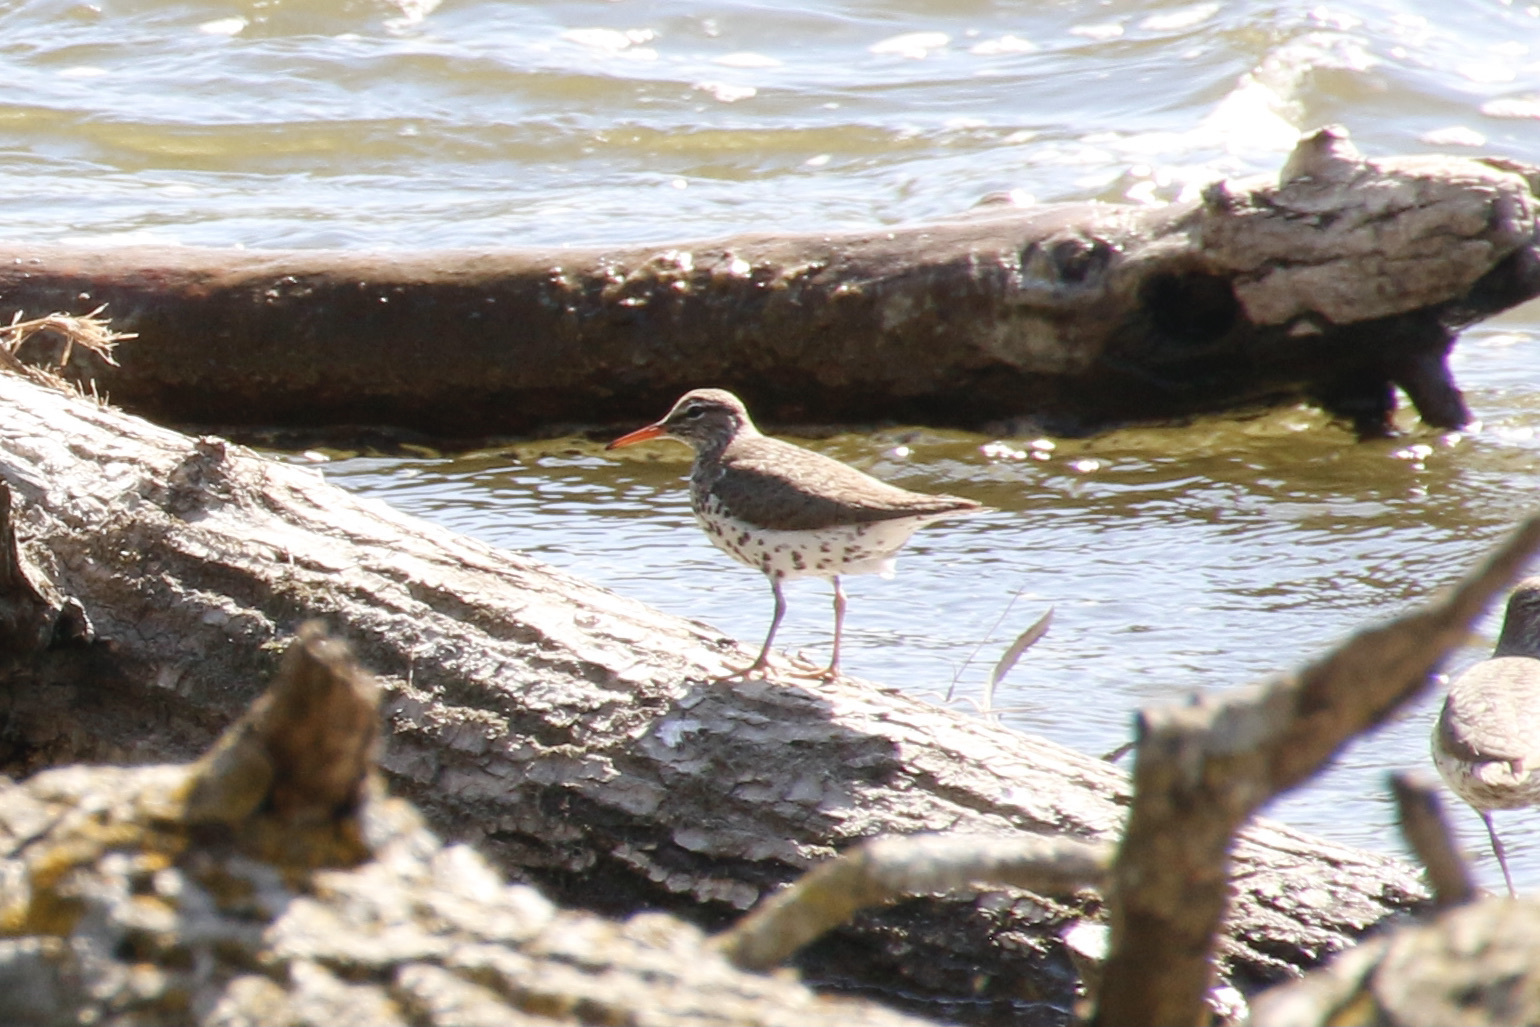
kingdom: Animalia
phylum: Chordata
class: Aves
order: Charadriiformes
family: Scolopacidae
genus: Actitis
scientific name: Actitis macularius
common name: Spotted sandpiper
